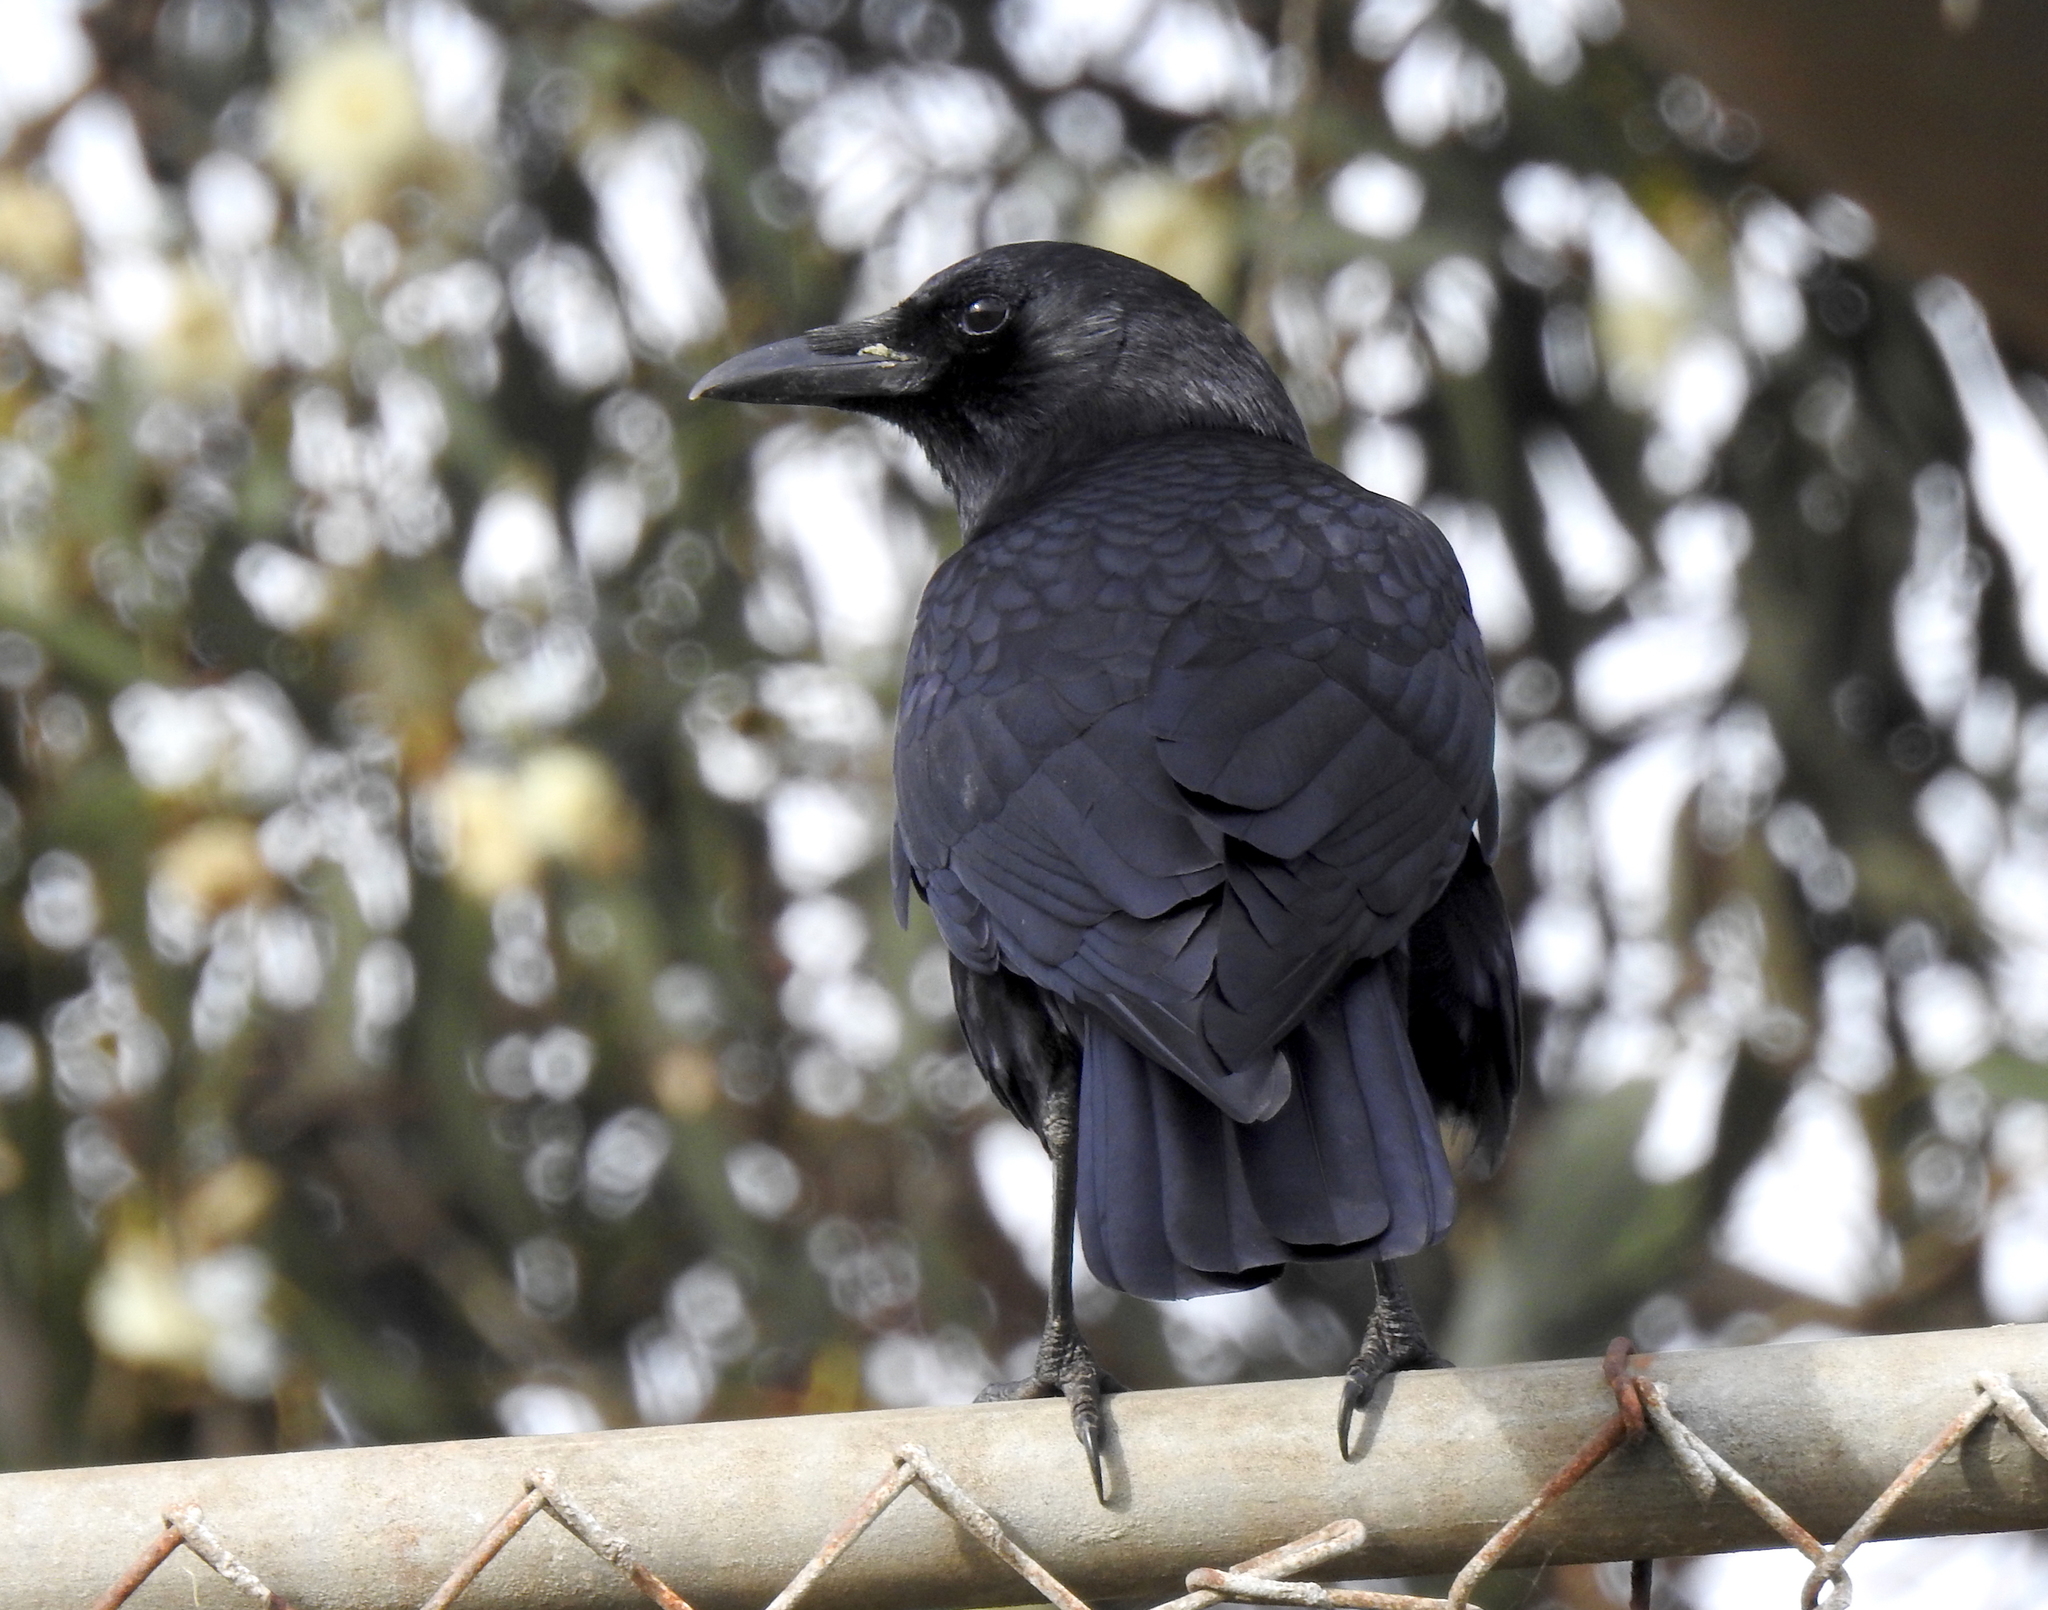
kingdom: Animalia
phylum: Chordata
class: Aves
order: Passeriformes
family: Corvidae
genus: Corvus
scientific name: Corvus brachyrhynchos
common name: American crow
